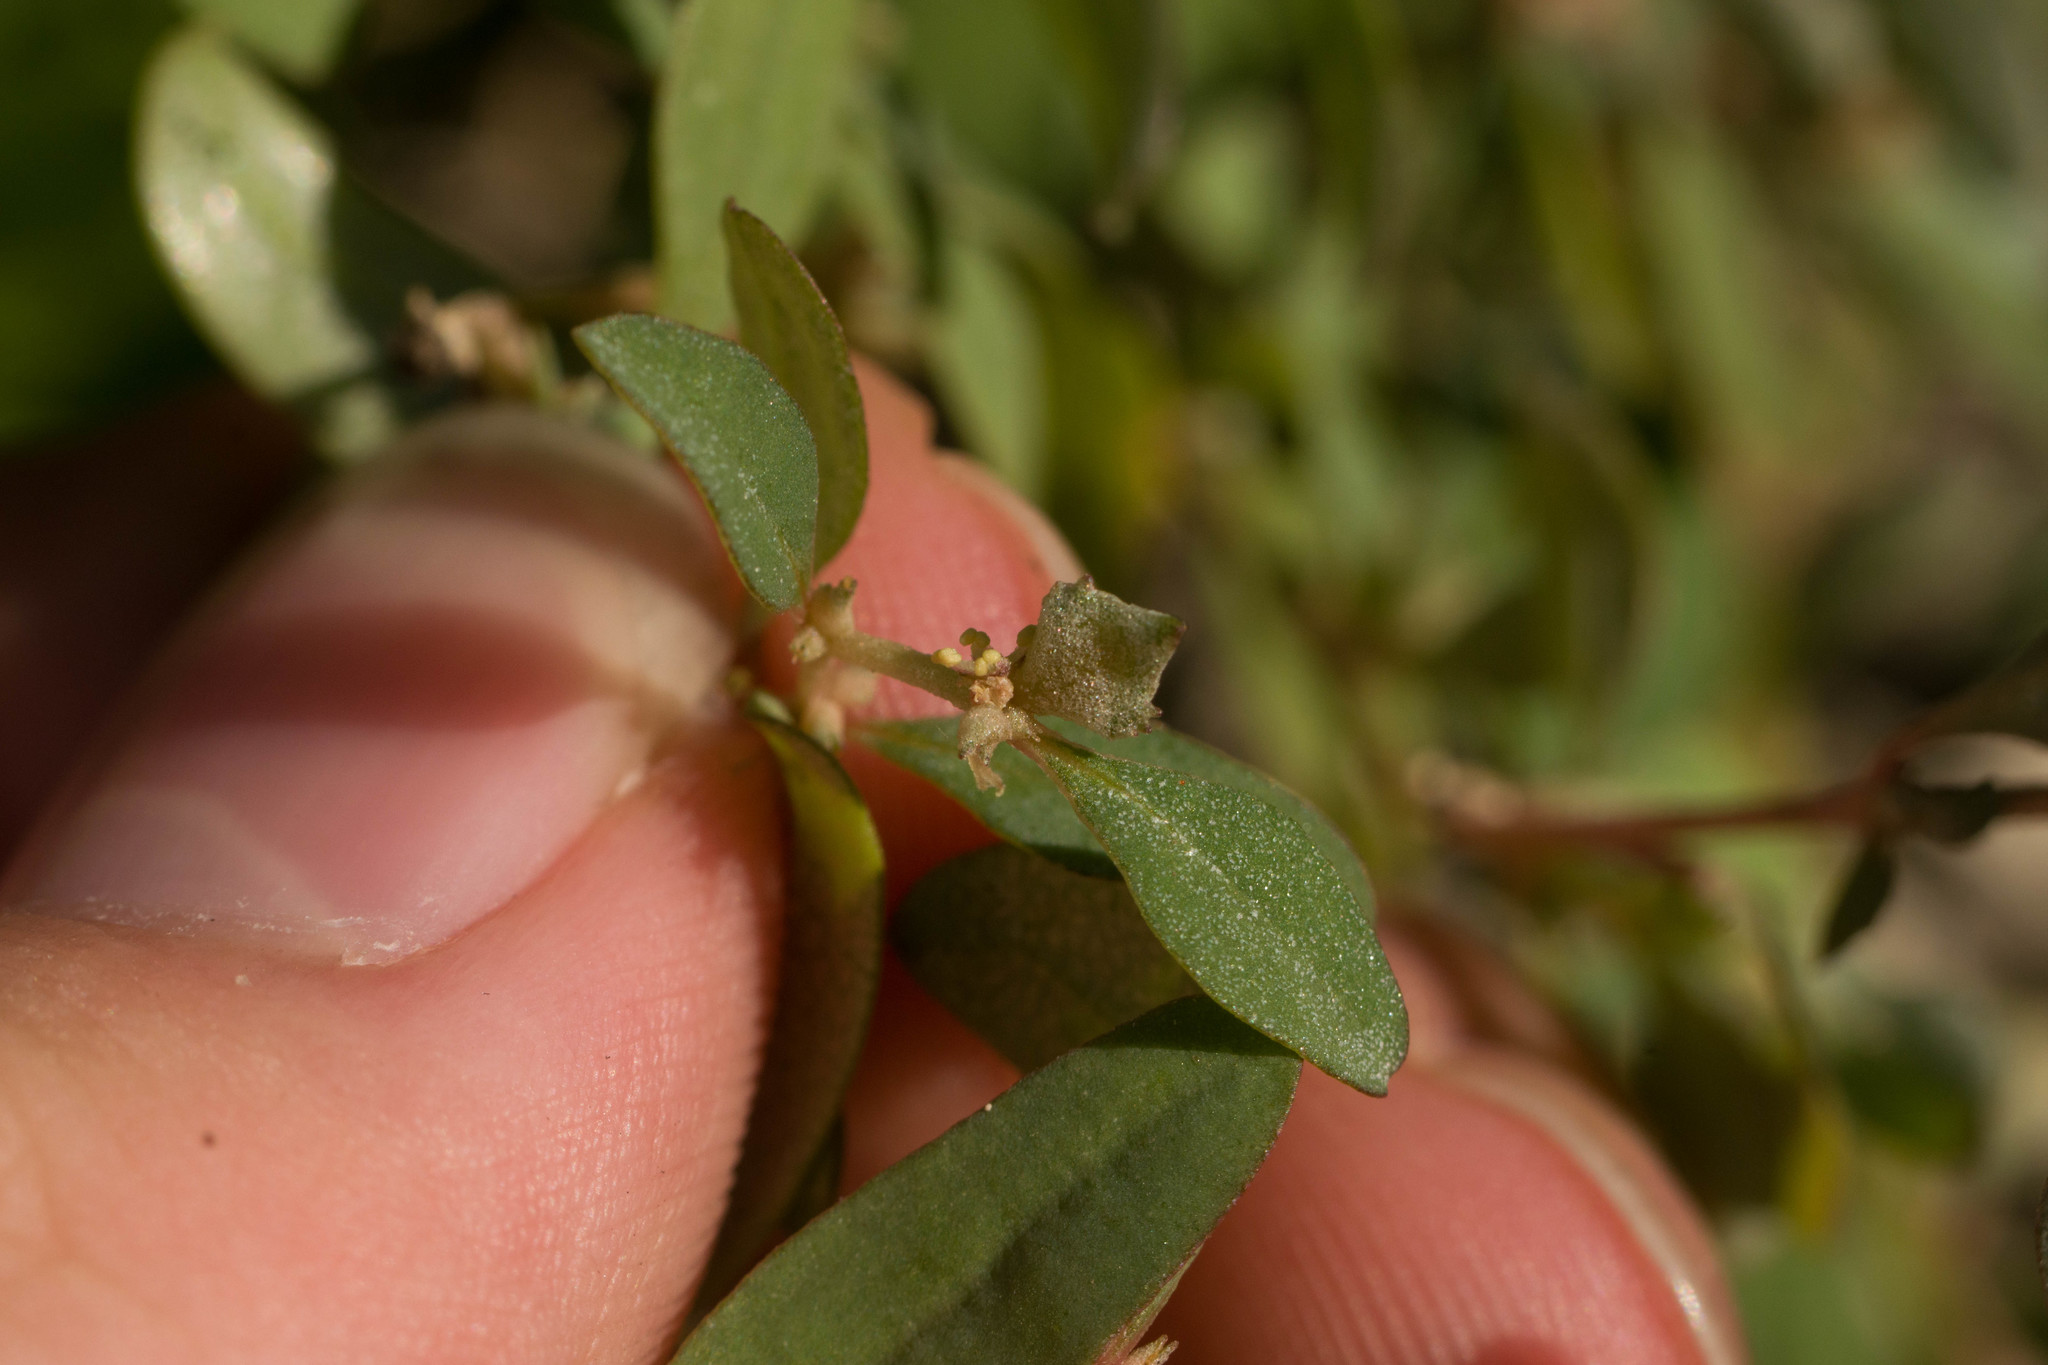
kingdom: Plantae
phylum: Tracheophyta
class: Magnoliopsida
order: Caryophyllales
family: Amaranthaceae
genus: Atriplex
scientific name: Atriplex semibaccata
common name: Australian saltbush
